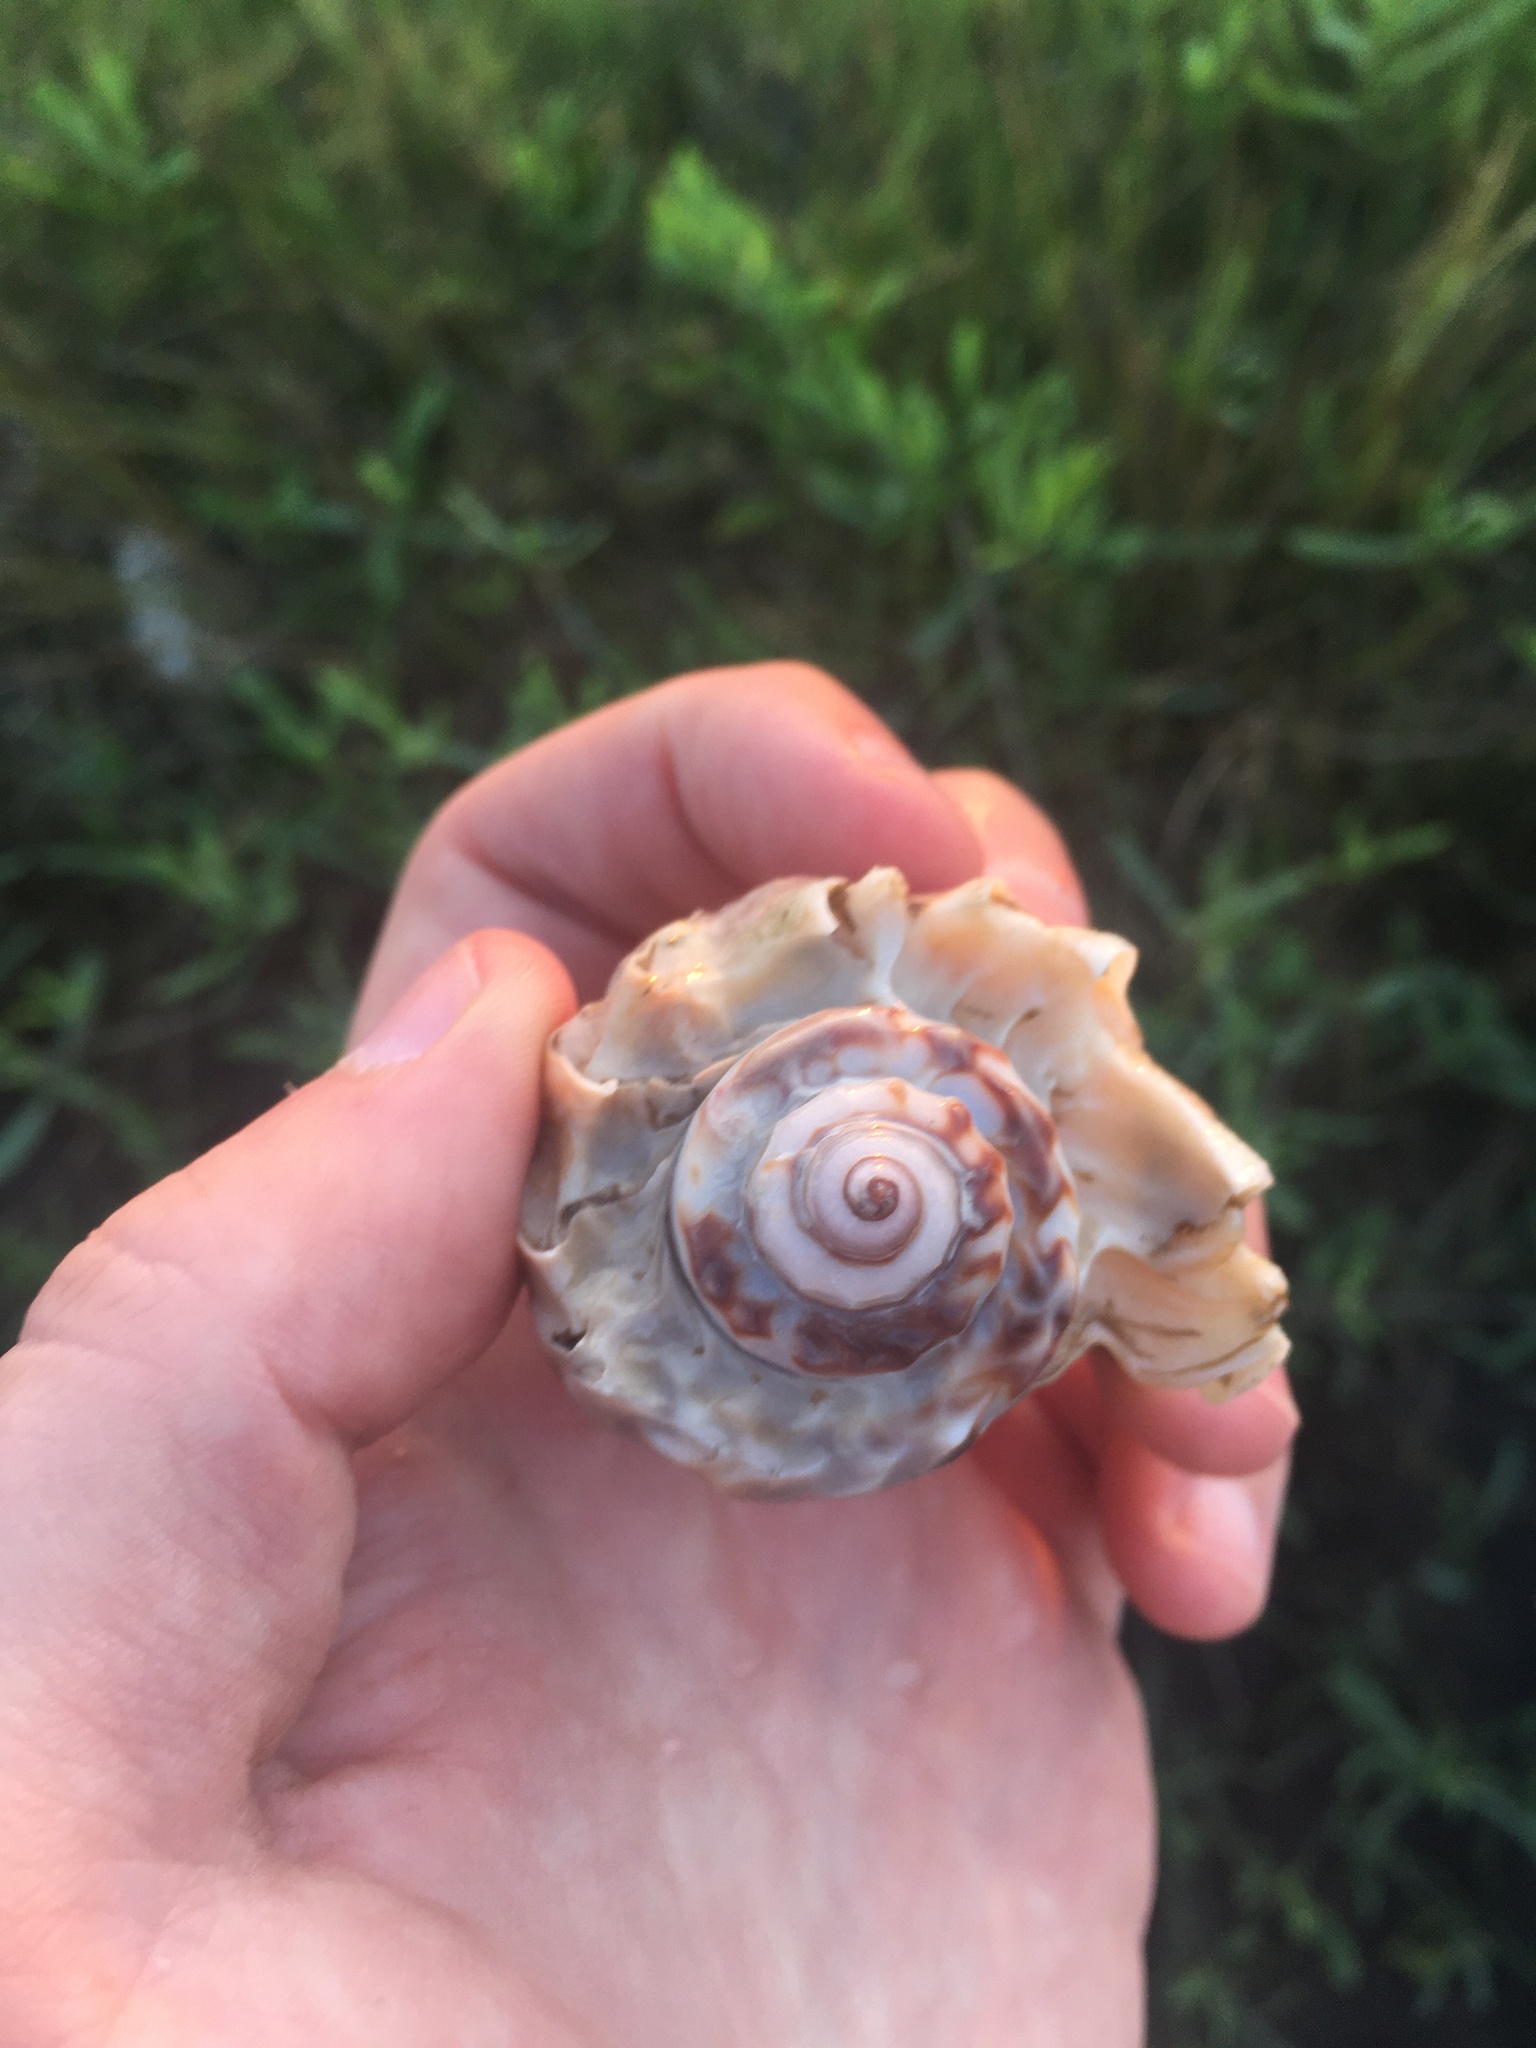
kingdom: Animalia
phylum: Mollusca
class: Gastropoda
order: Neogastropoda
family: Melongenidae
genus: Melongena
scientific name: Melongena corona
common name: American crown conch
